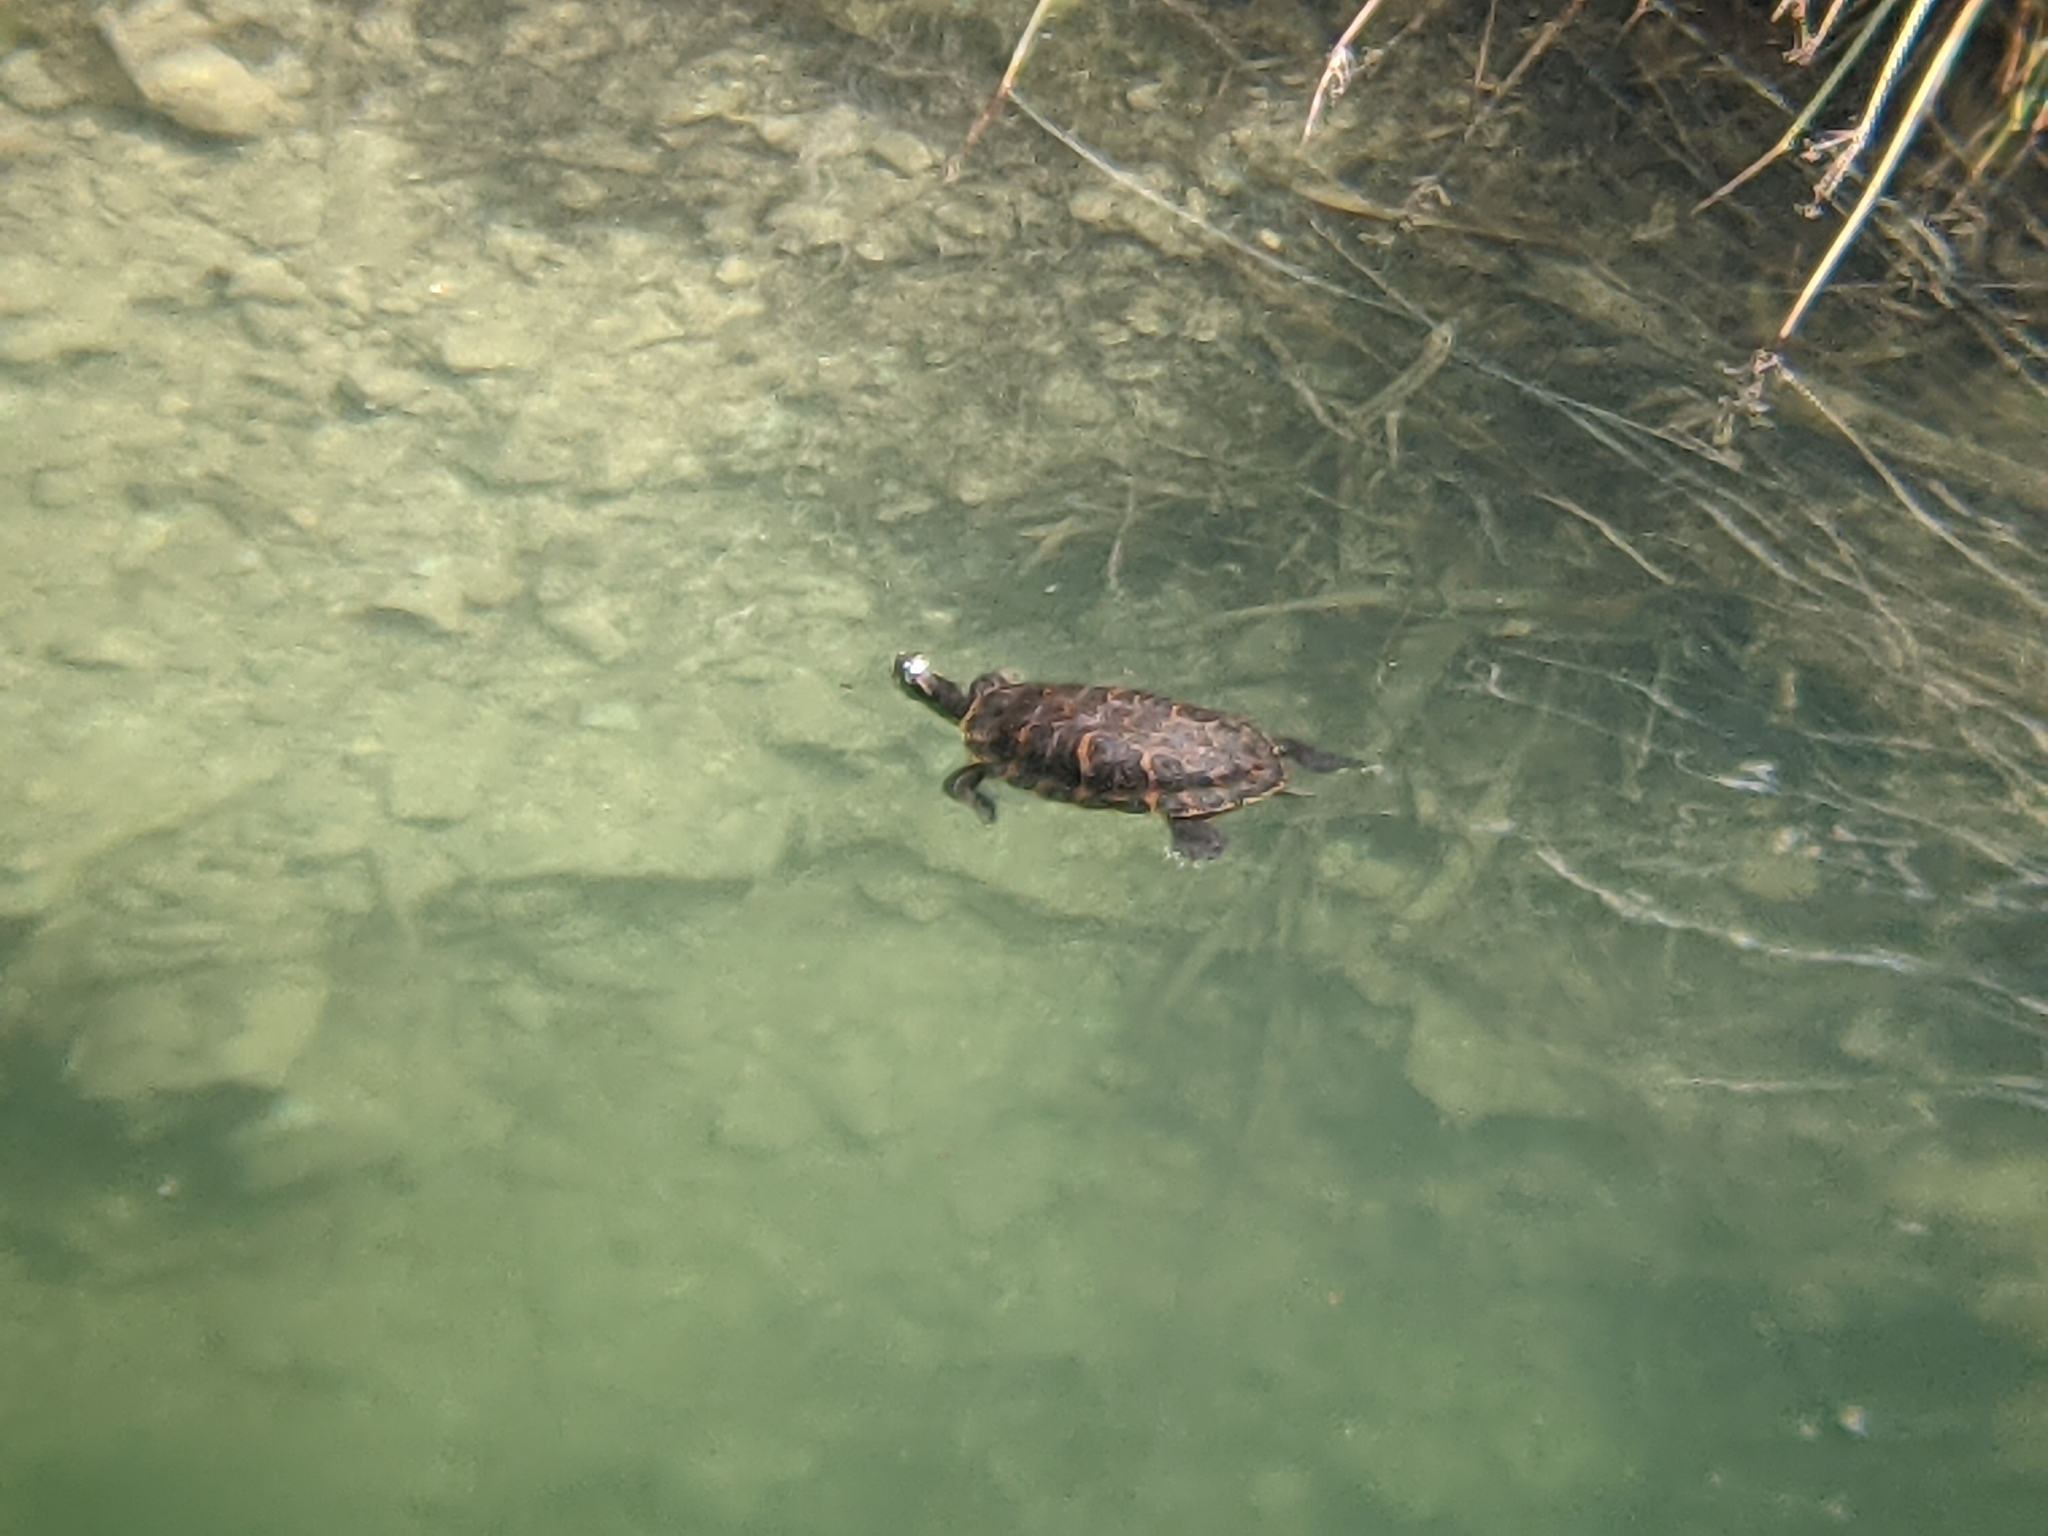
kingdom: Animalia
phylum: Chordata
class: Testudines
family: Emydidae
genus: Trachemys
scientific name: Trachemys scripta
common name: Slider
